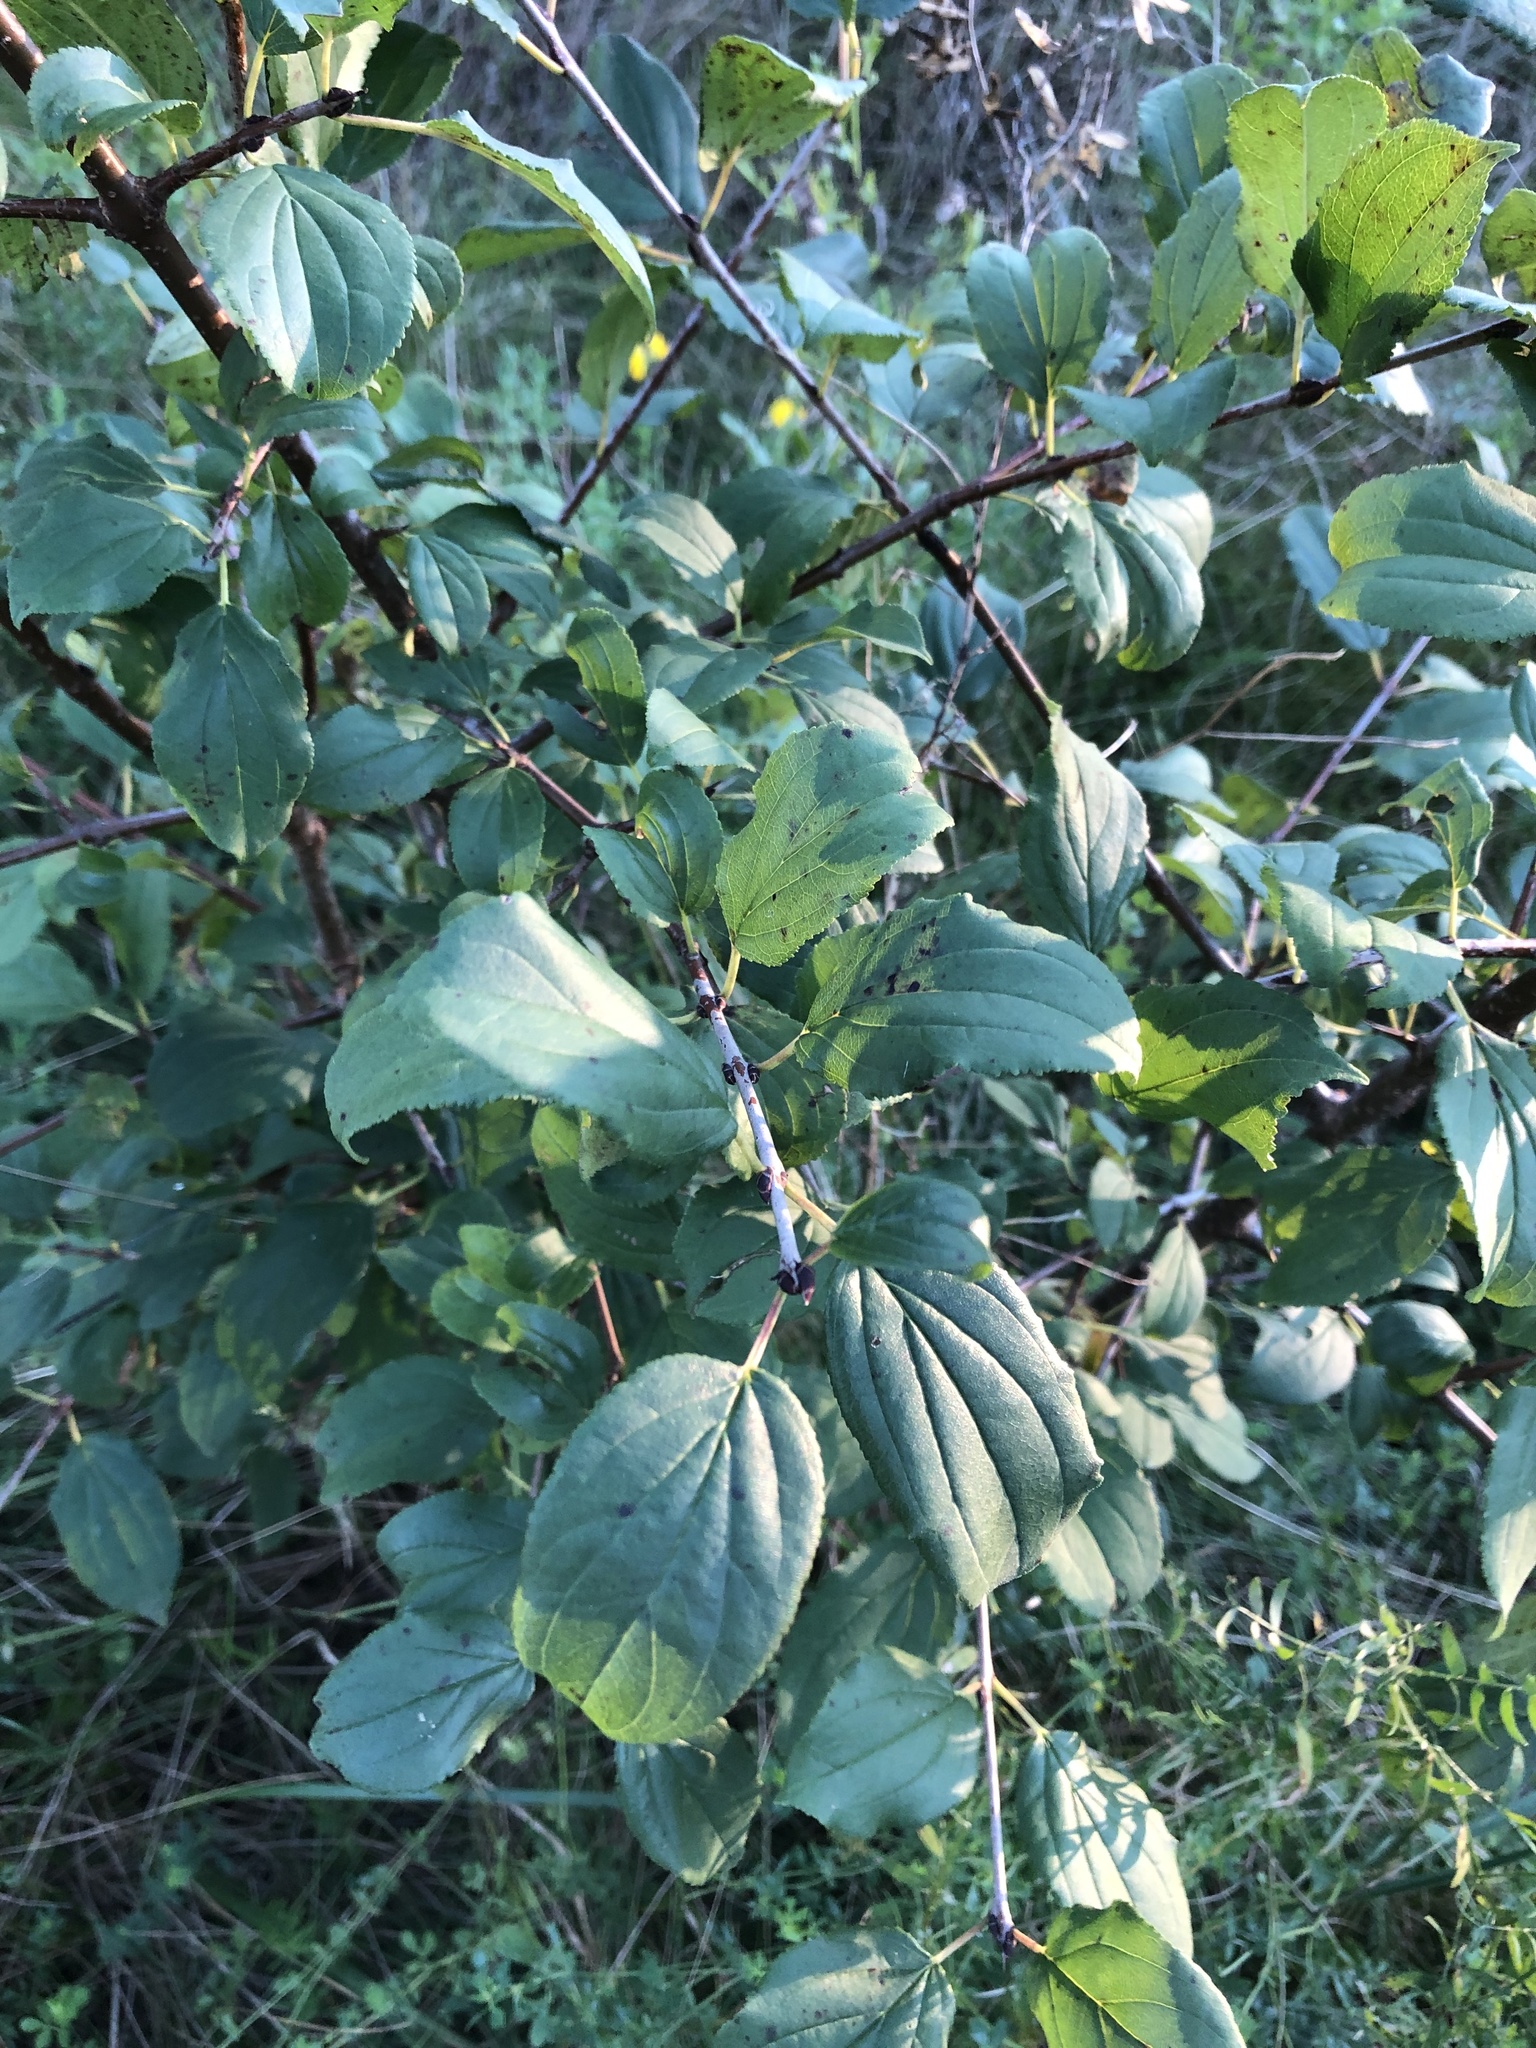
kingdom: Plantae
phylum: Tracheophyta
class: Magnoliopsida
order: Rosales
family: Rhamnaceae
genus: Rhamnus
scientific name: Rhamnus cathartica
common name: Common buckthorn
